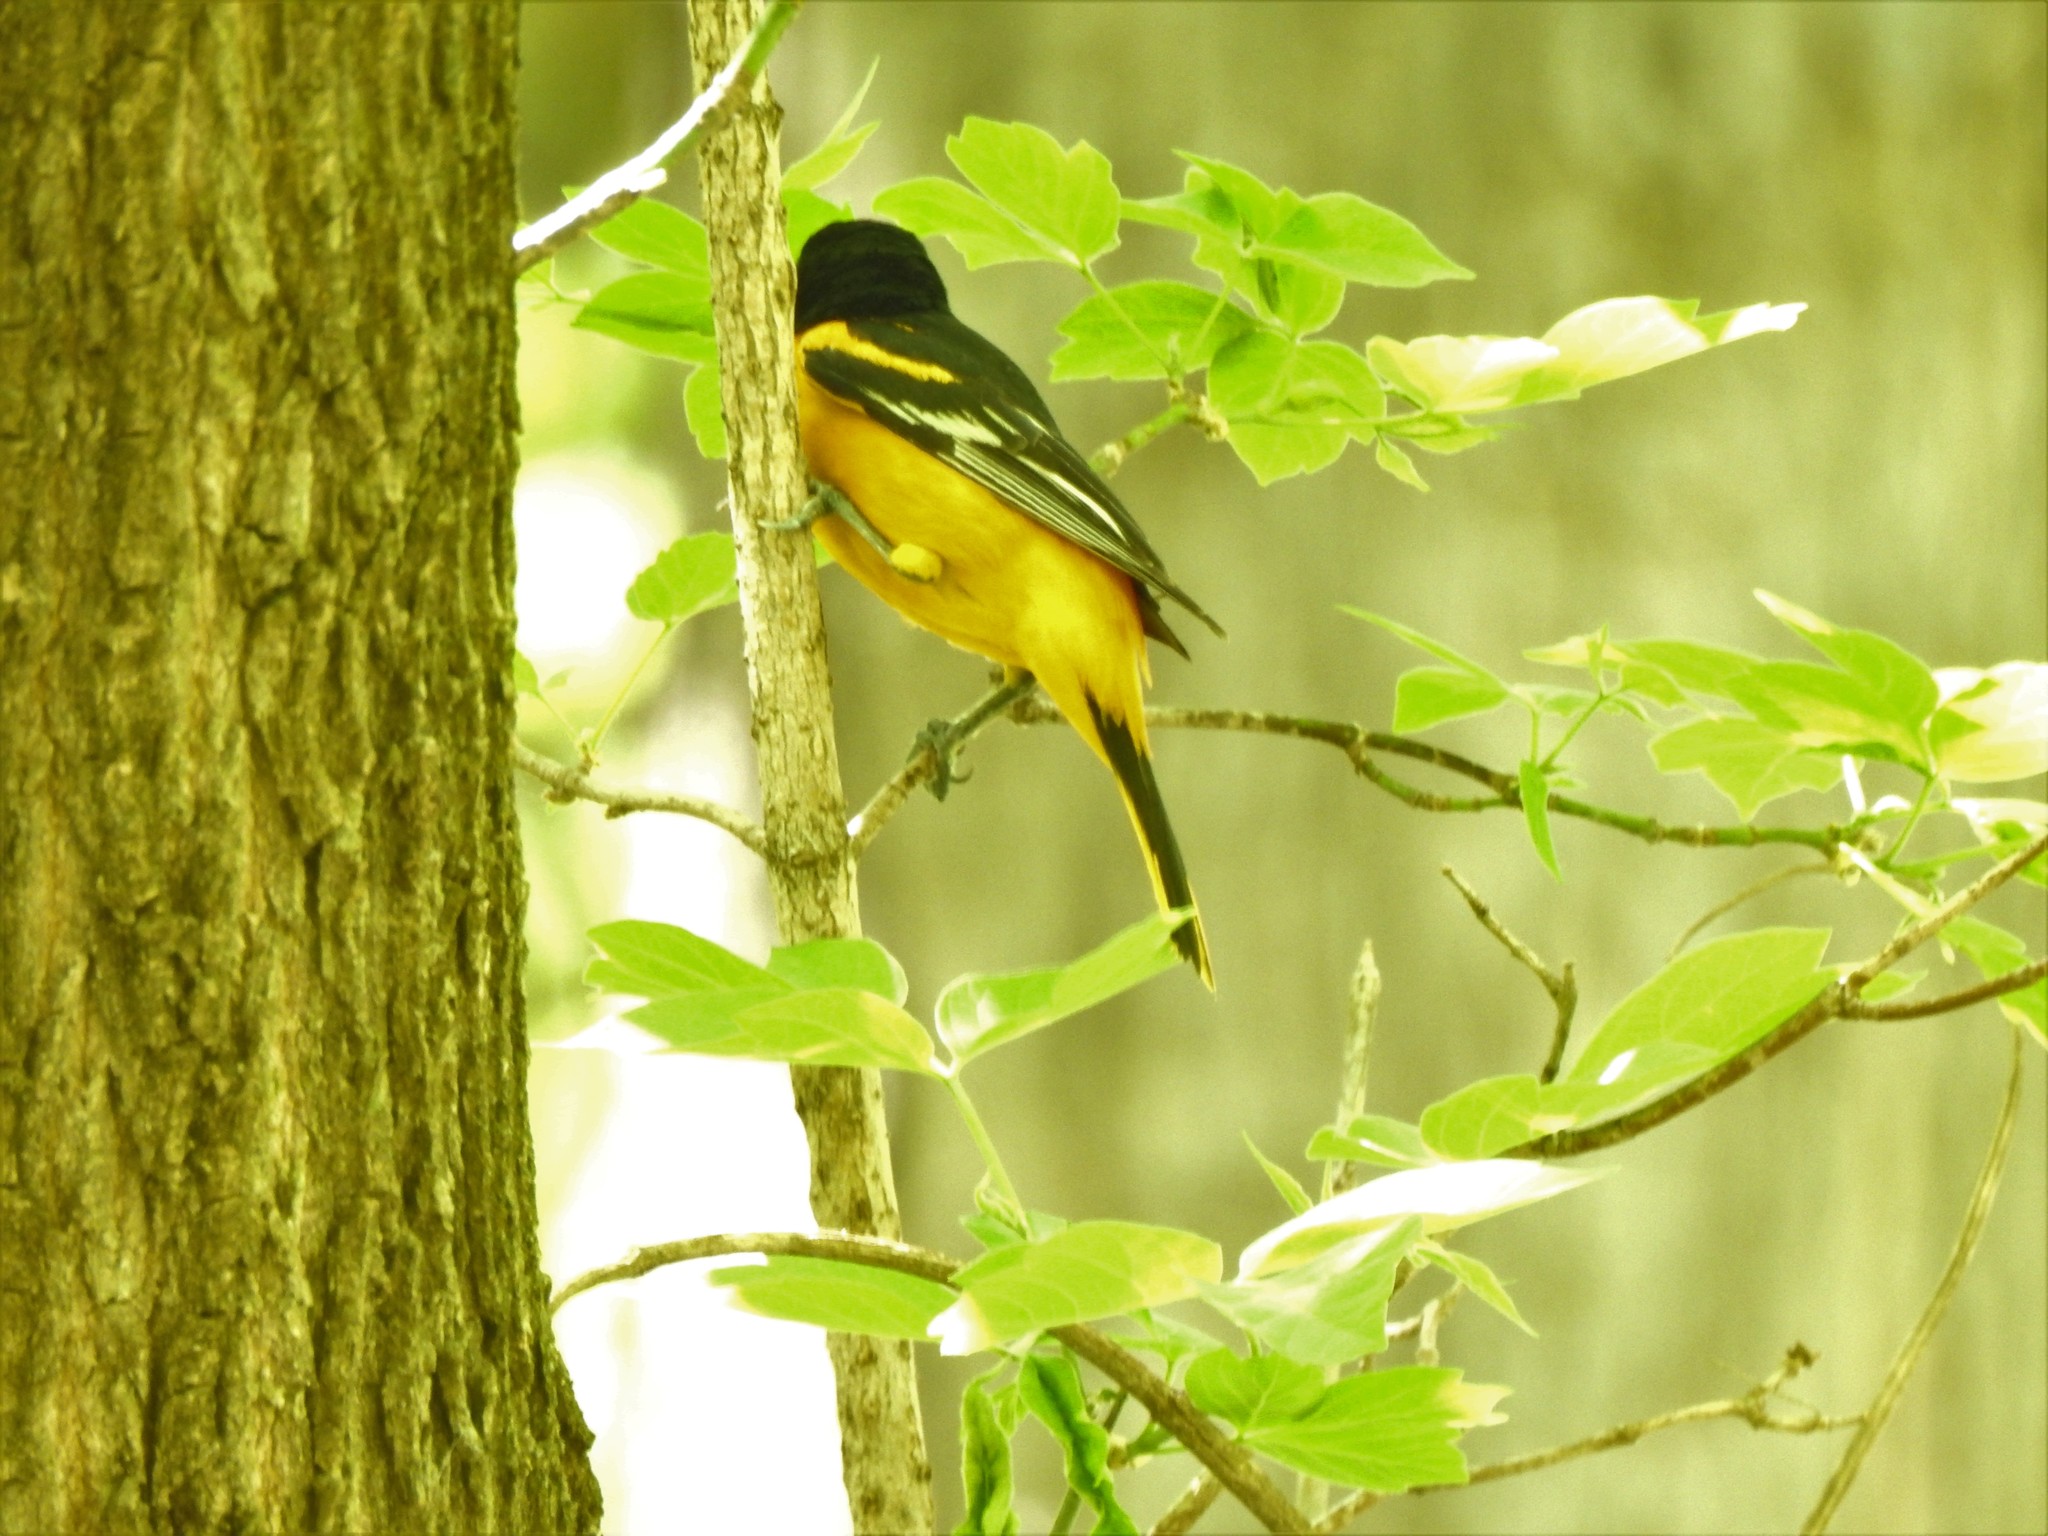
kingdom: Animalia
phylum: Chordata
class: Aves
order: Passeriformes
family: Icteridae
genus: Icterus
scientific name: Icterus galbula
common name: Baltimore oriole
